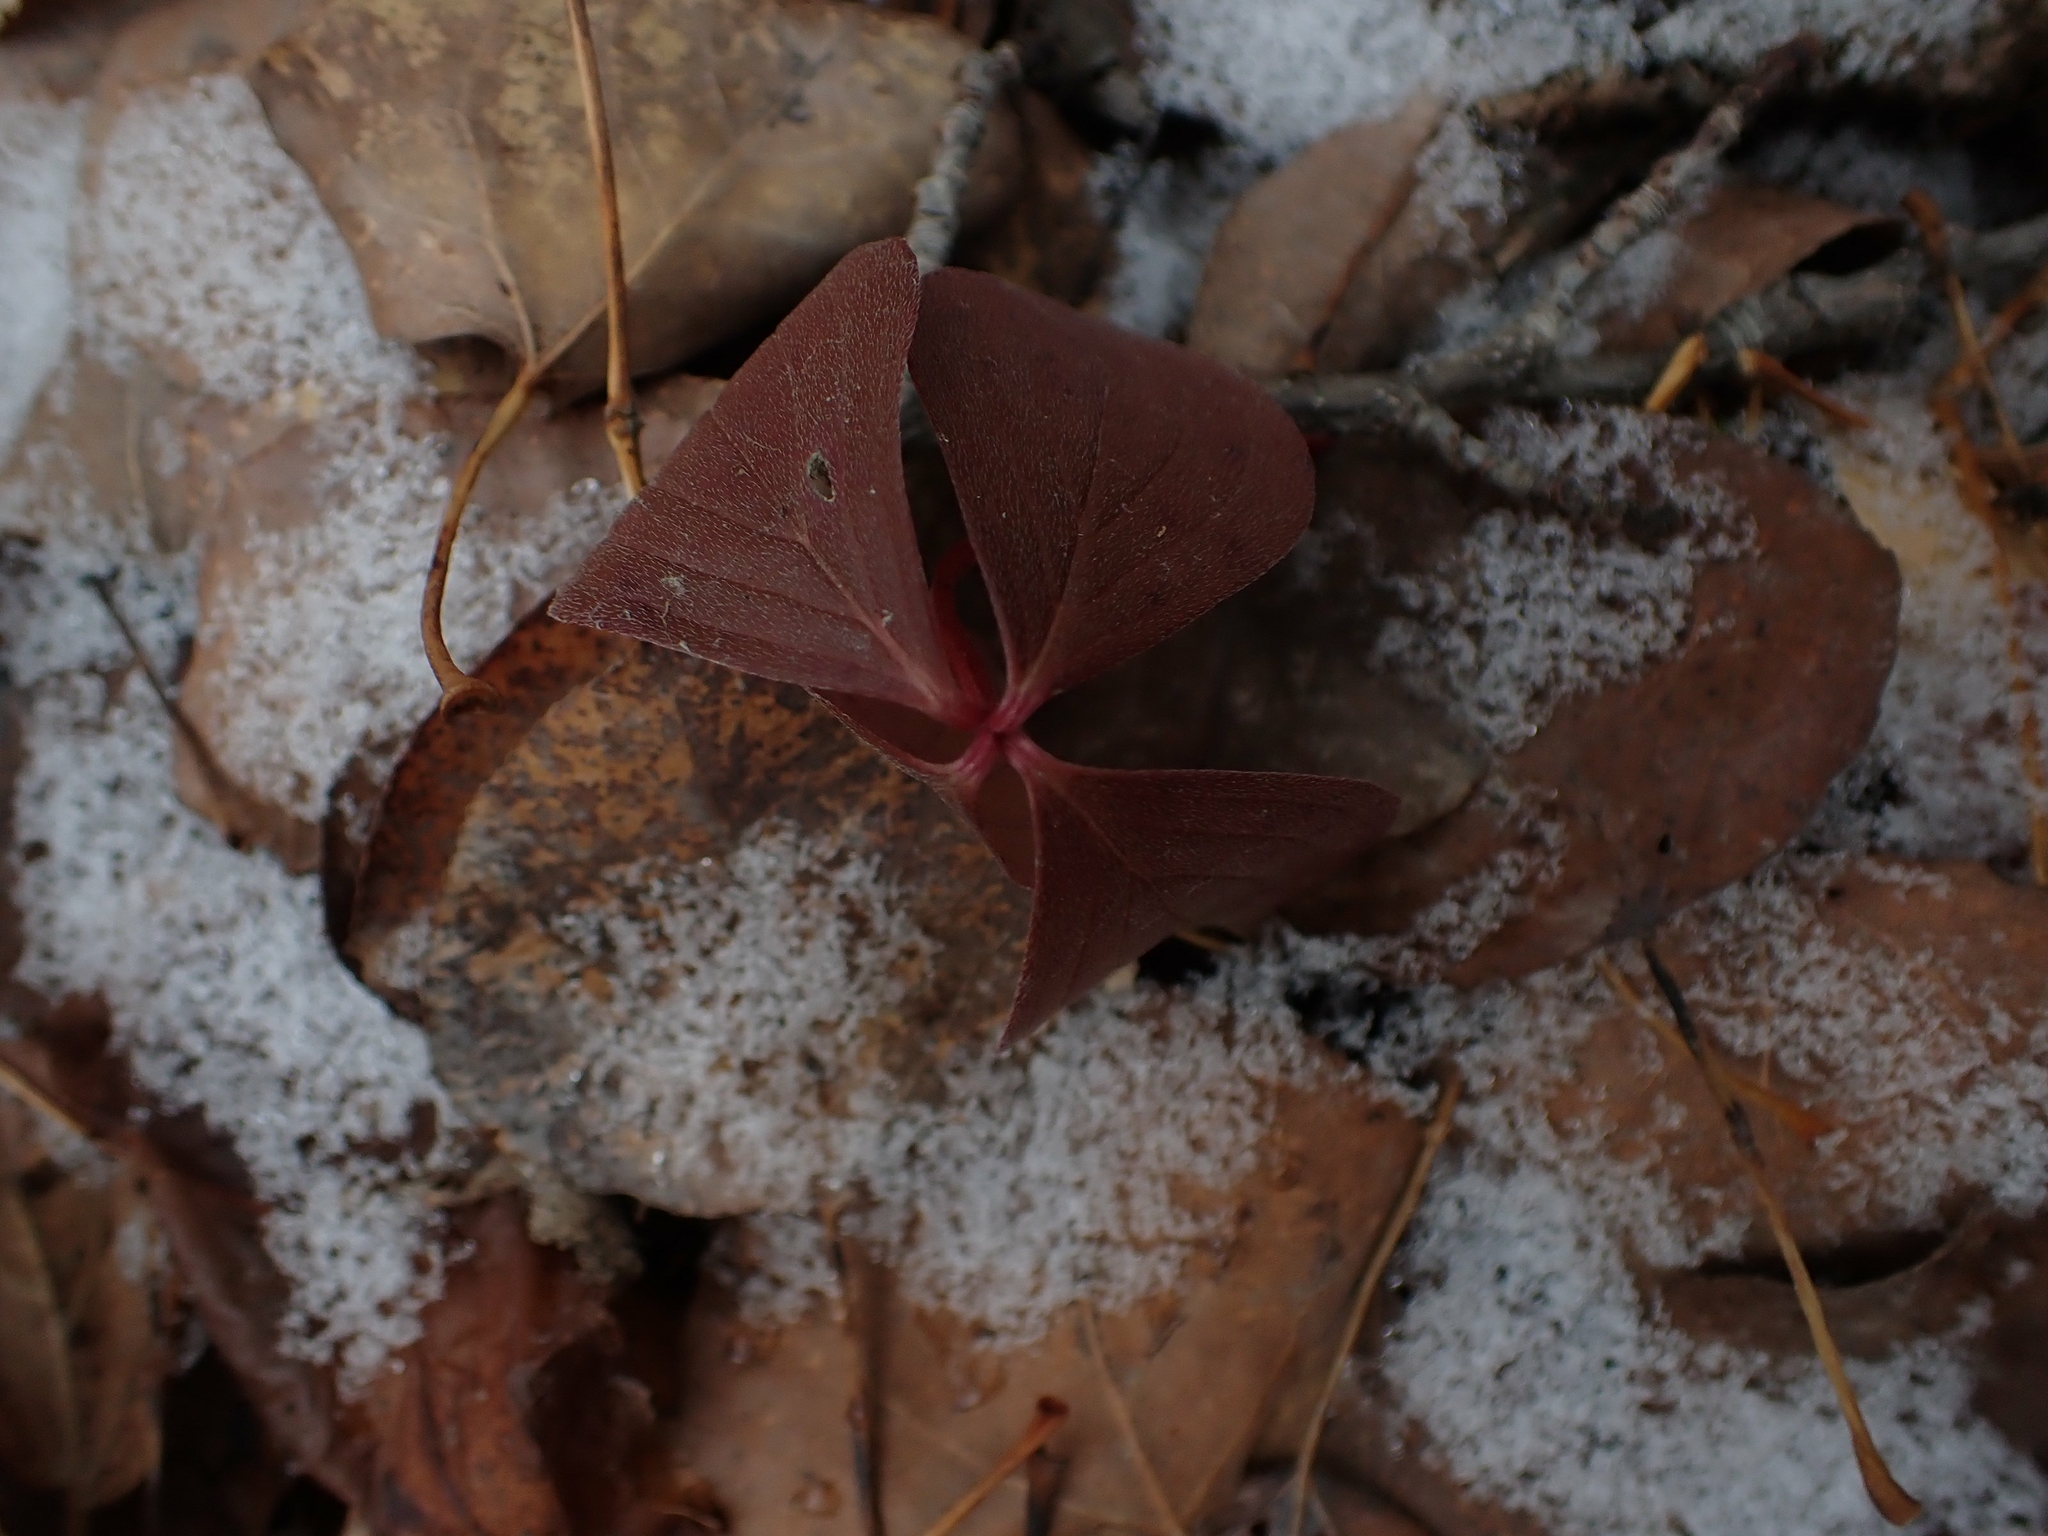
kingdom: Plantae
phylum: Tracheophyta
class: Magnoliopsida
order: Cornales
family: Cornaceae
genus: Cornus
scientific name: Cornus canadensis
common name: Creeping dogwood
